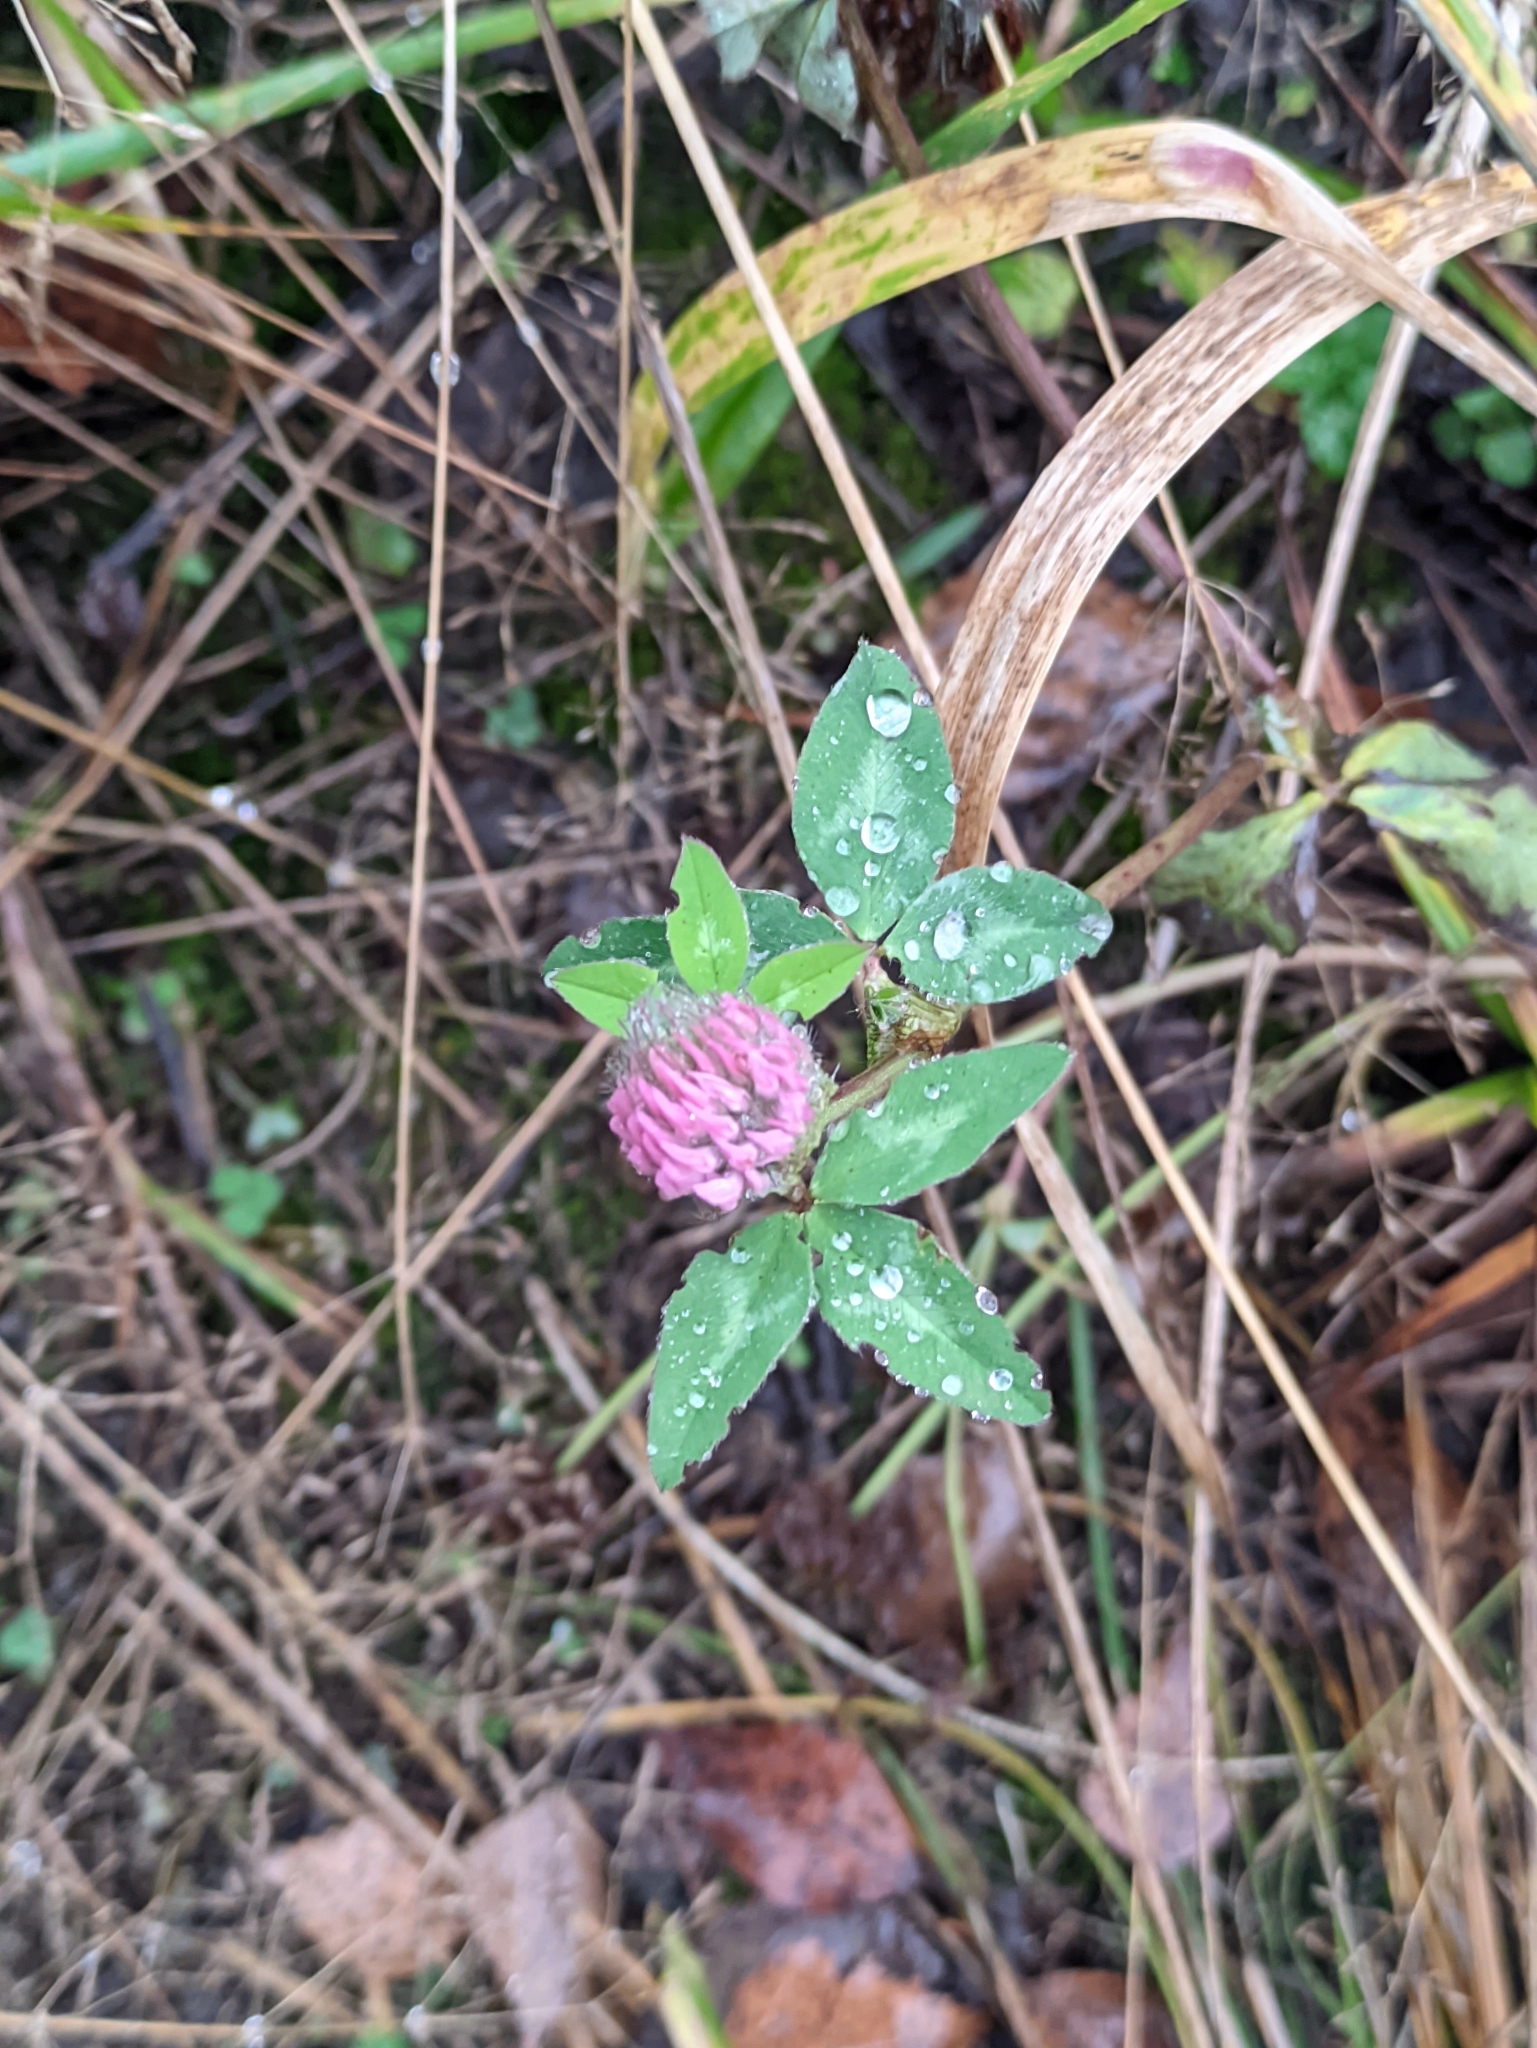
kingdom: Plantae
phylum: Tracheophyta
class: Magnoliopsida
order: Fabales
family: Fabaceae
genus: Trifolium
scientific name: Trifolium pratense
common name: Red clover
